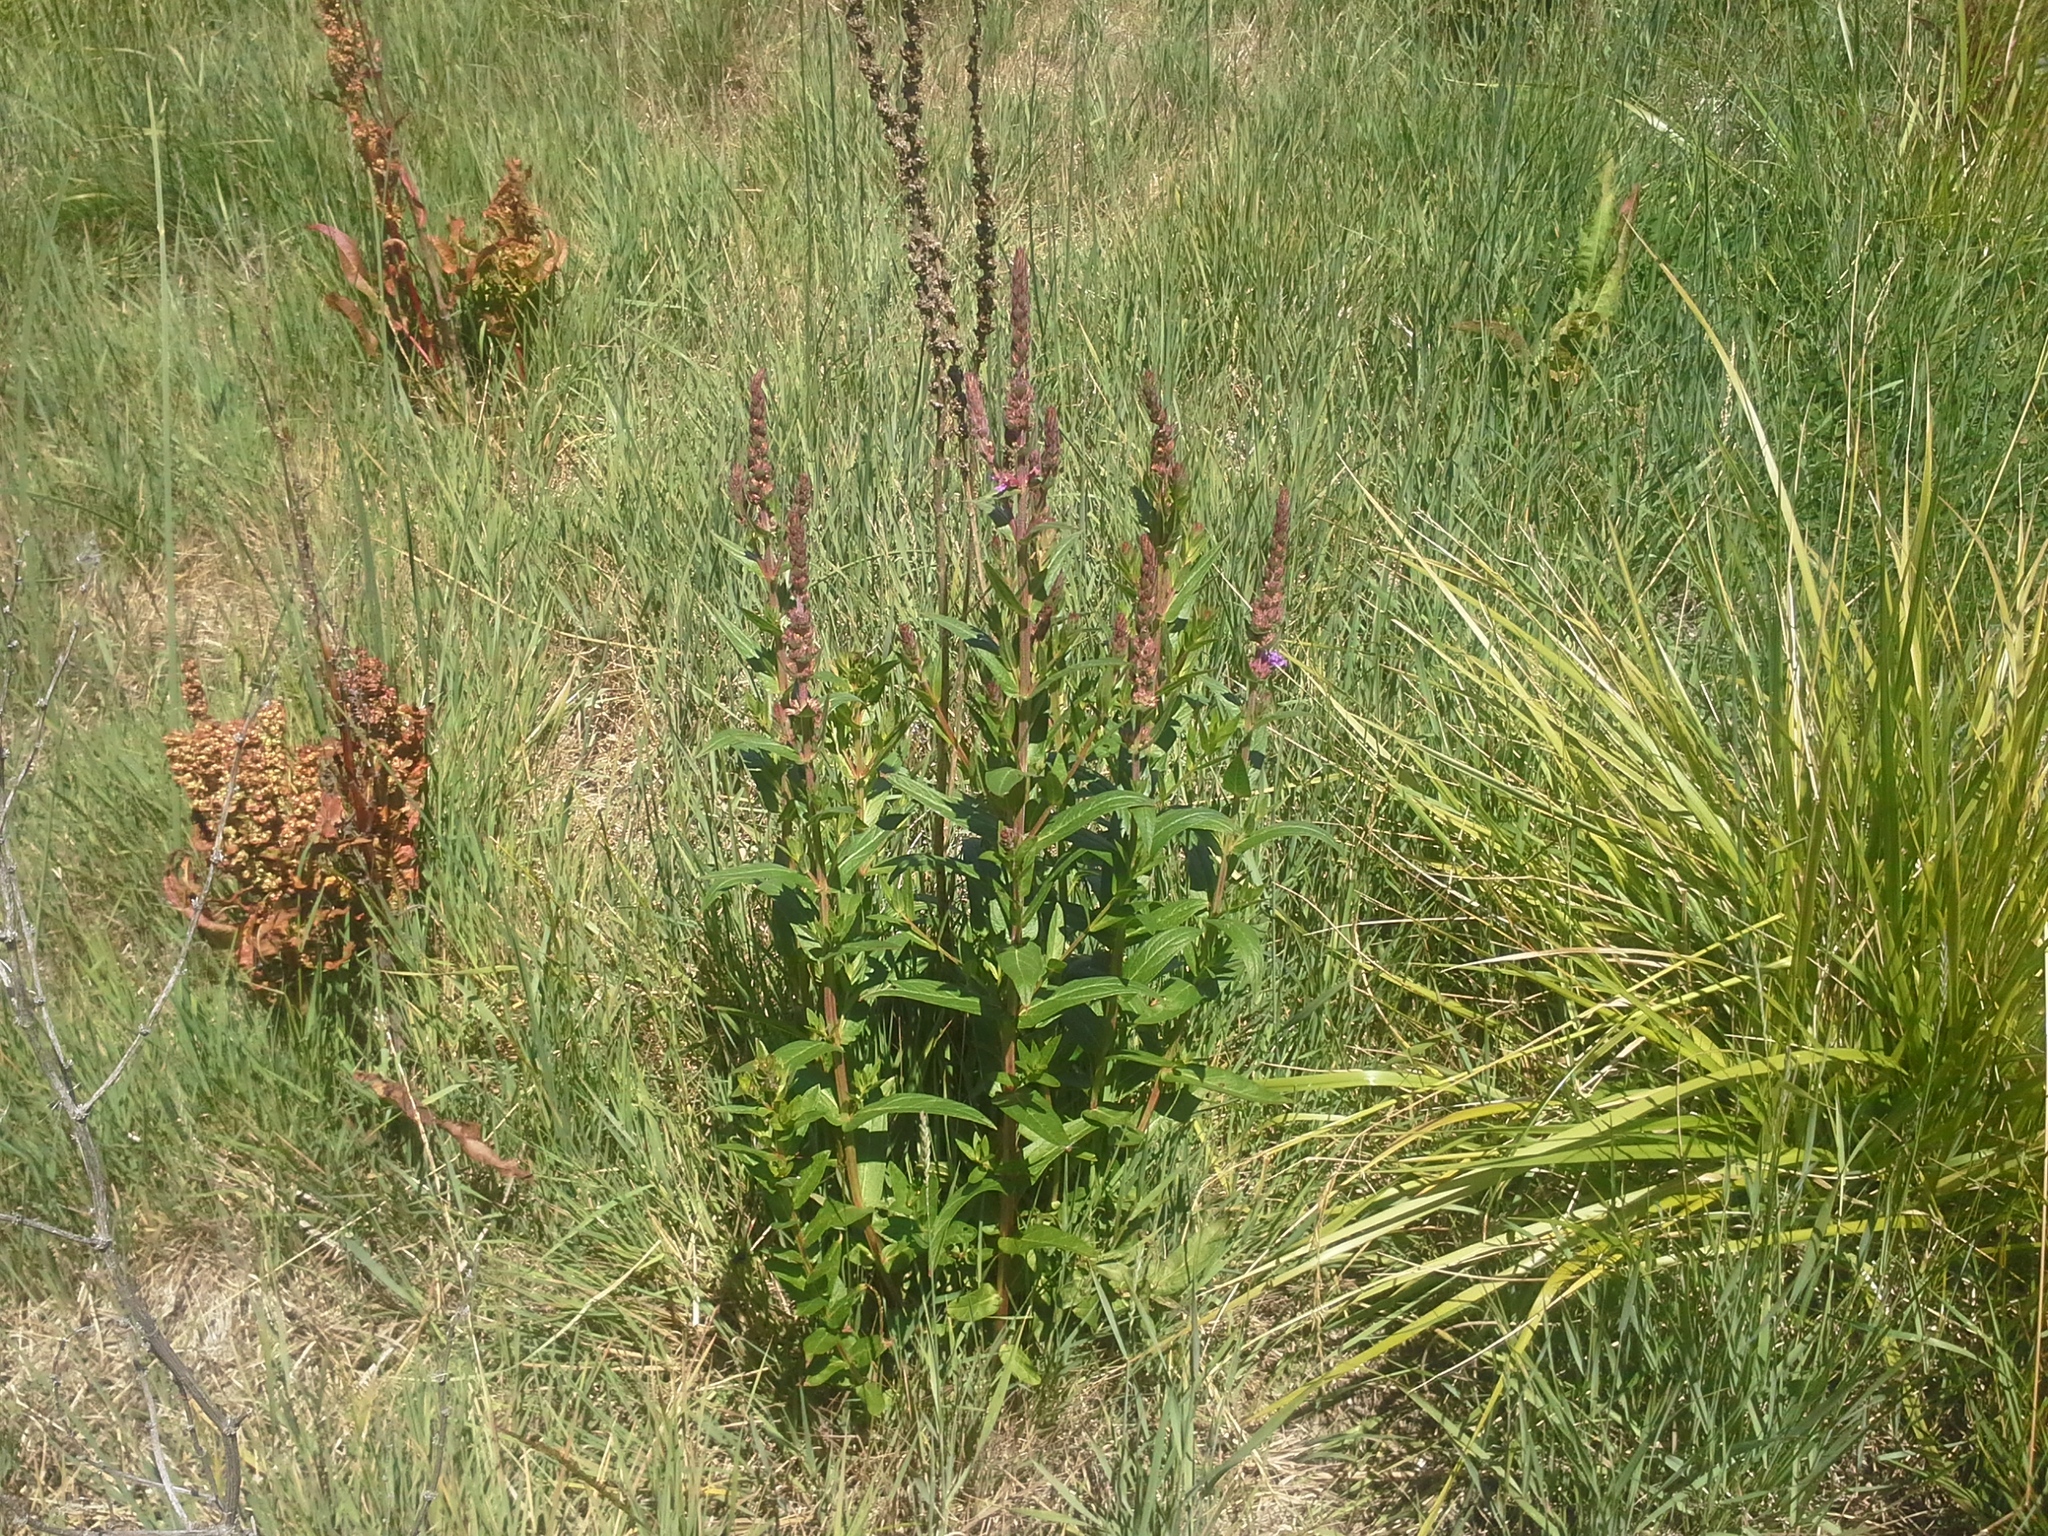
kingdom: Plantae
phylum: Tracheophyta
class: Magnoliopsida
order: Myrtales
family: Lythraceae
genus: Lythrum
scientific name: Lythrum salicaria
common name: Purple loosestrife
